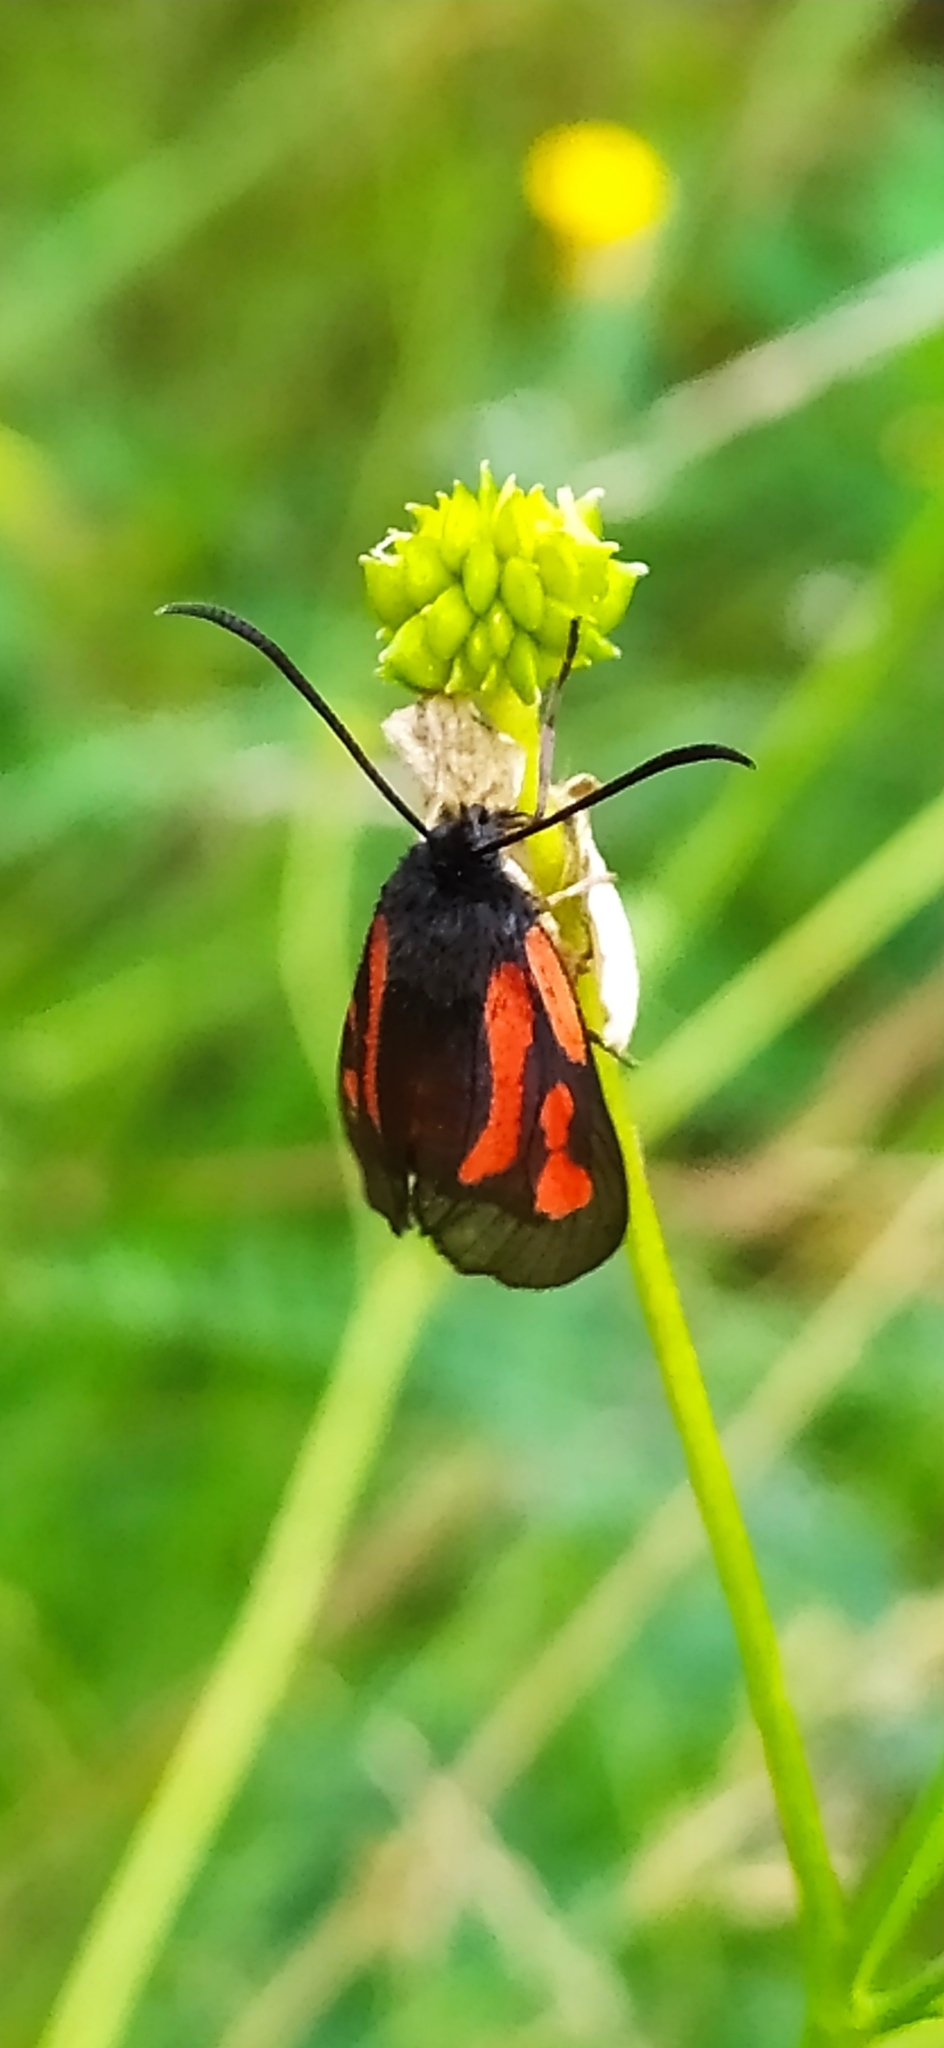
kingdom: Animalia
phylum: Arthropoda
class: Insecta
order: Lepidoptera
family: Zygaenidae
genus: Zygaena
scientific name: Zygaena osterodensis
